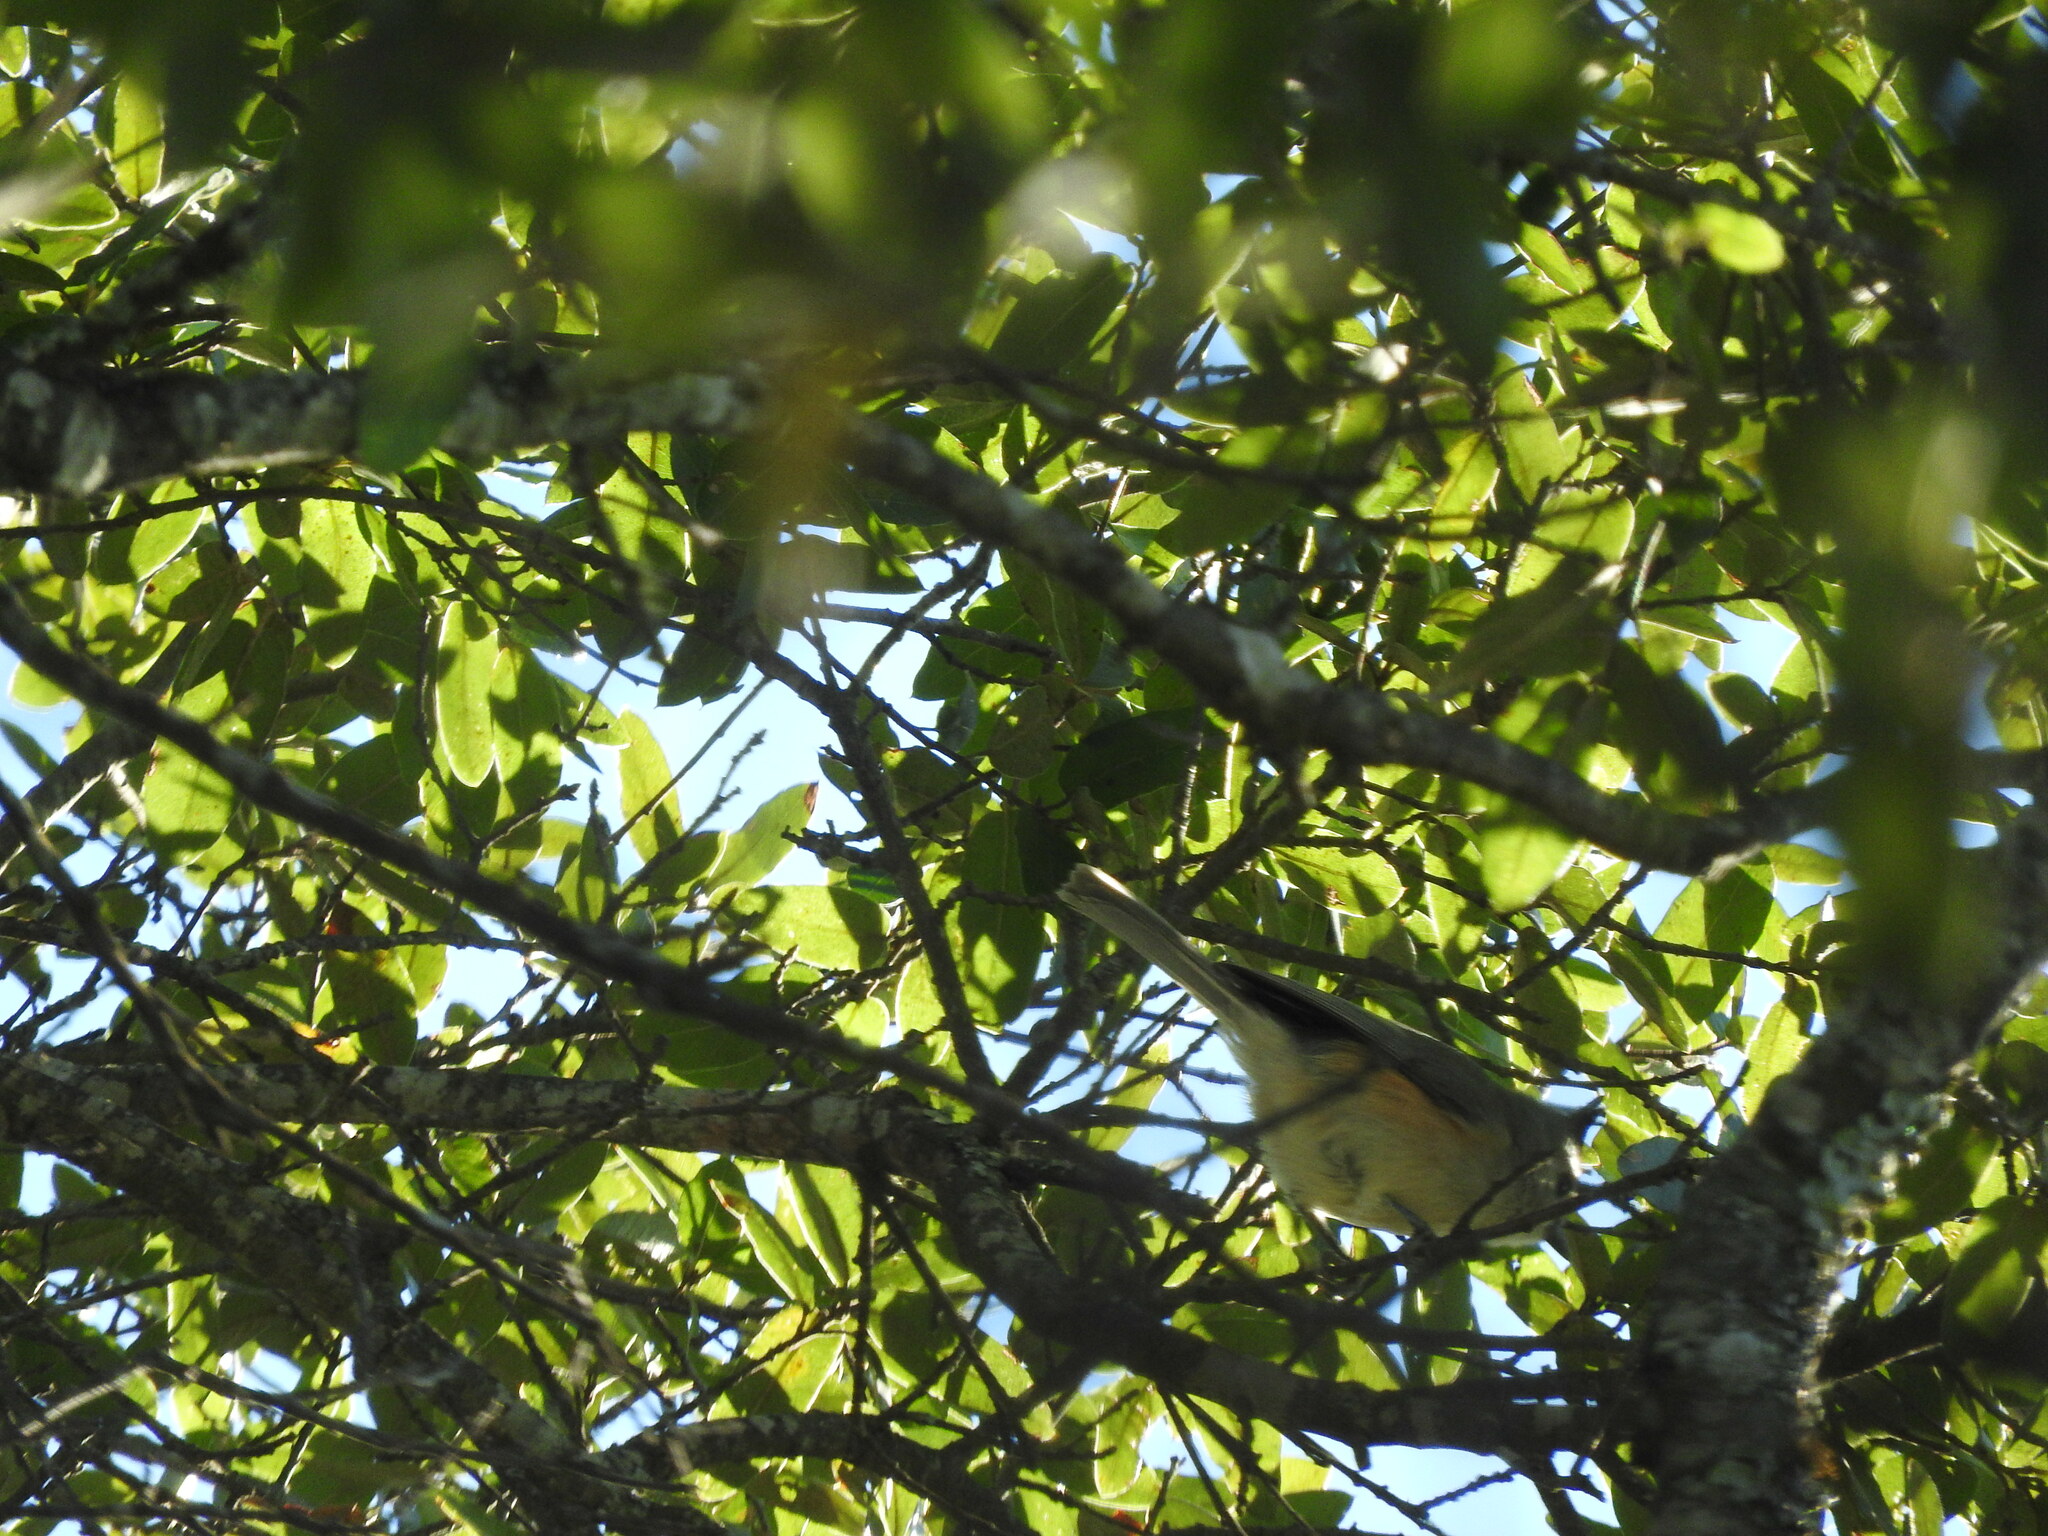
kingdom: Animalia
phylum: Chordata
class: Aves
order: Passeriformes
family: Paridae
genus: Baeolophus
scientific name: Baeolophus atricristatus
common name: Black-crested titmouse
